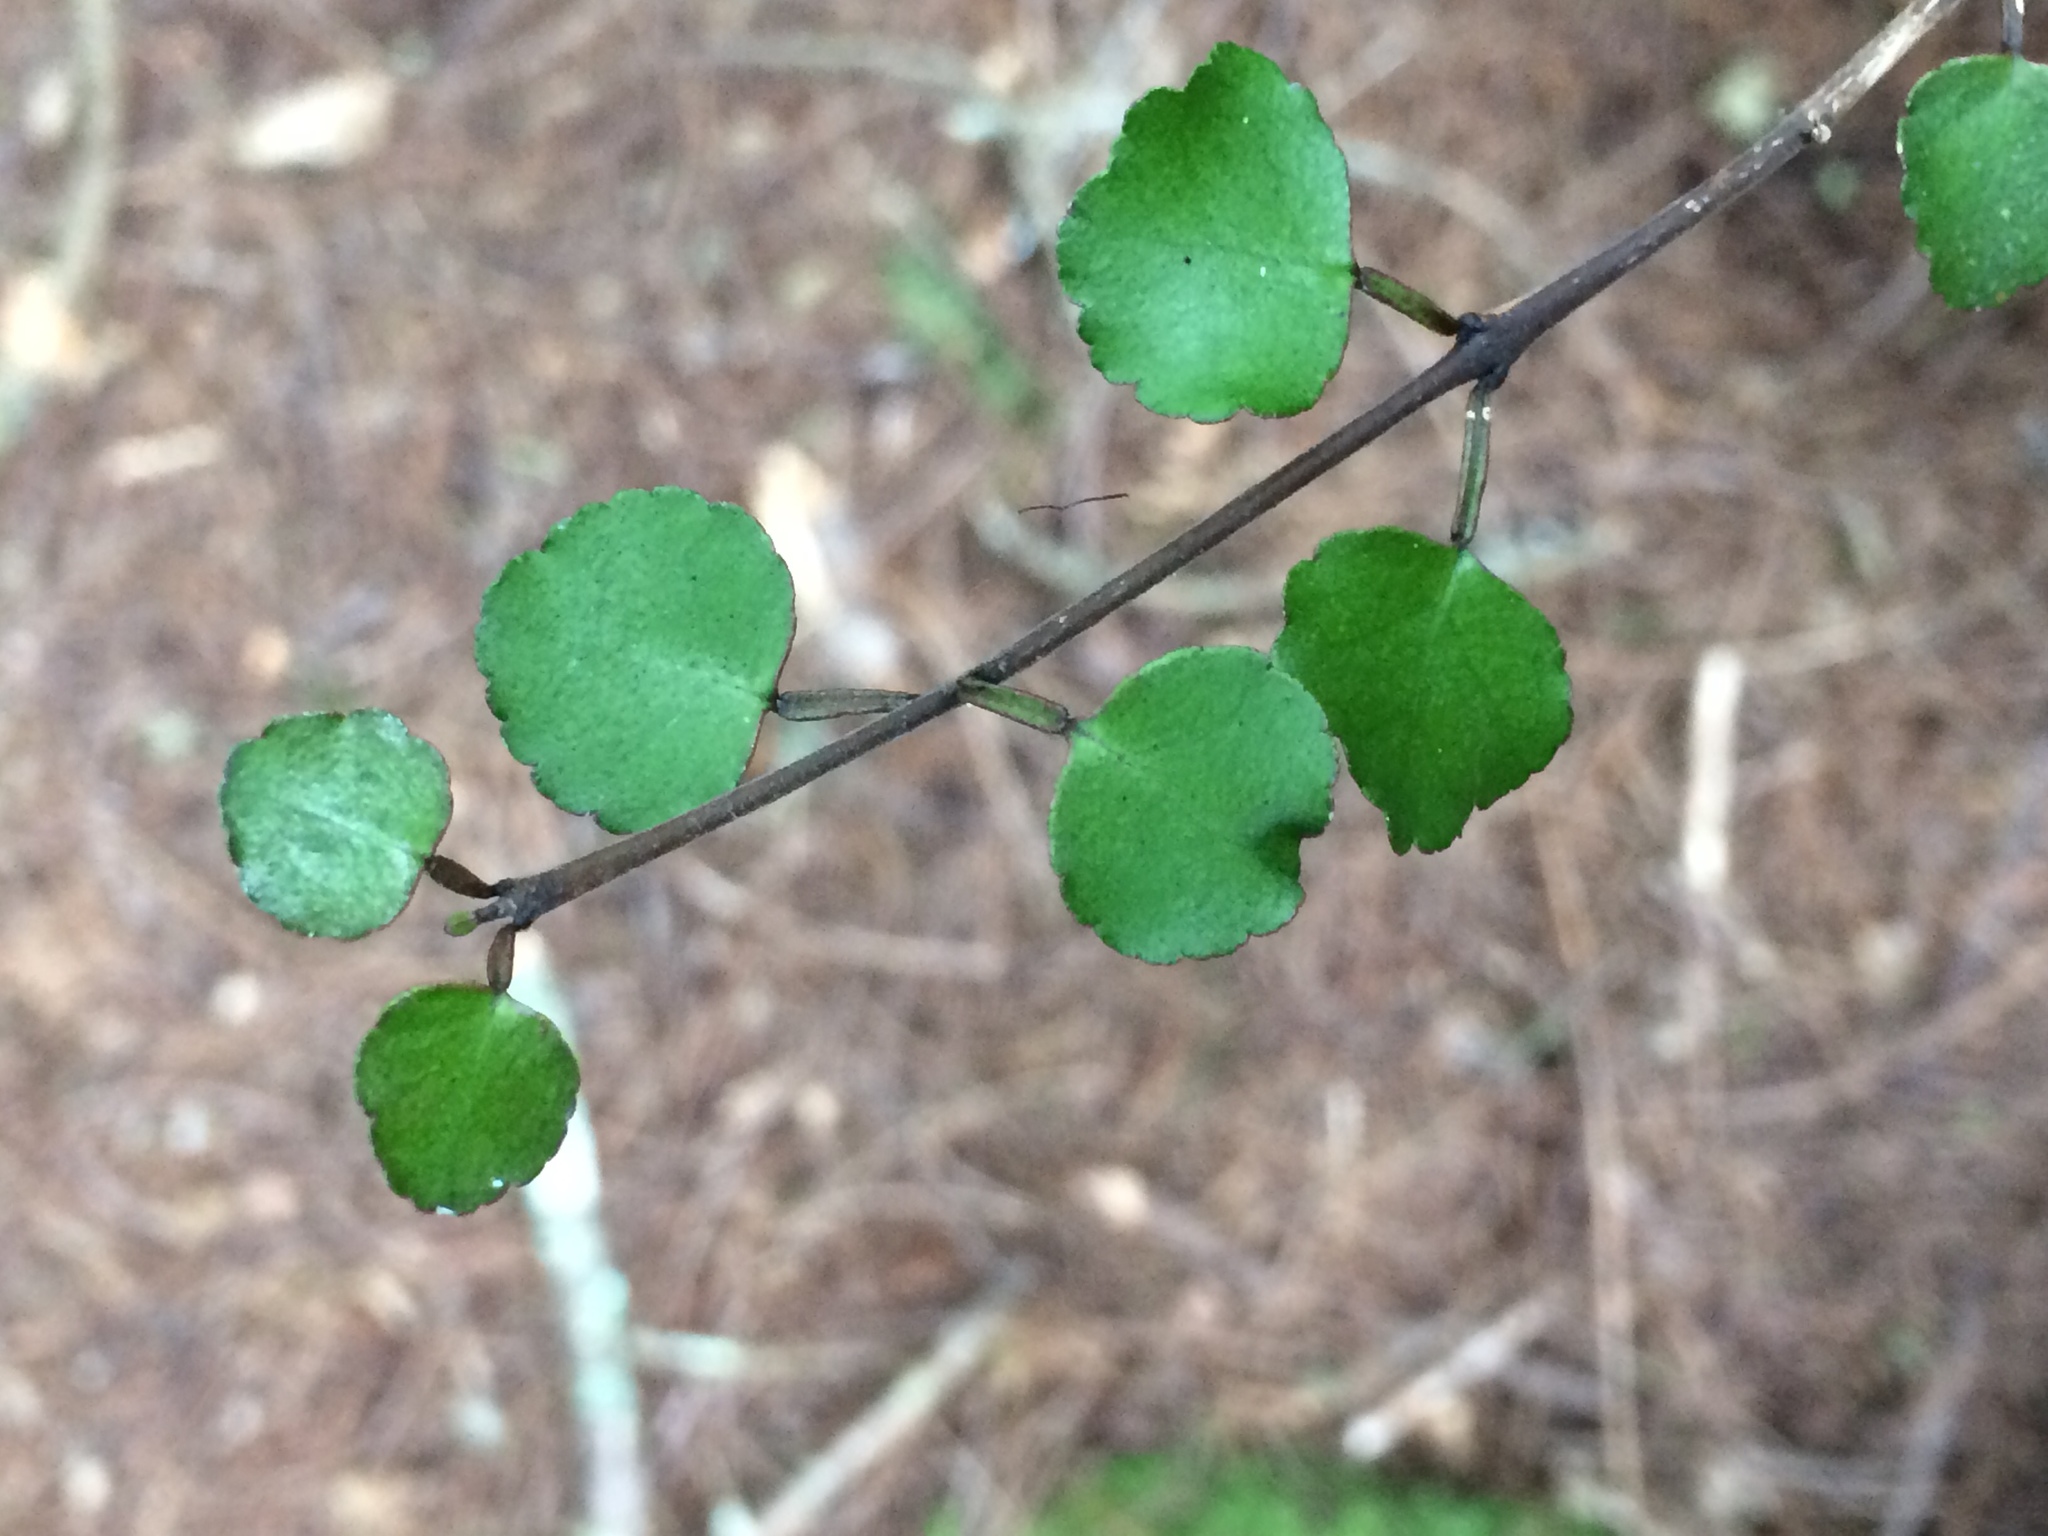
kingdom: Plantae
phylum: Tracheophyta
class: Magnoliopsida
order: Sapindales
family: Rutaceae
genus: Melicope
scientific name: Melicope simplex
